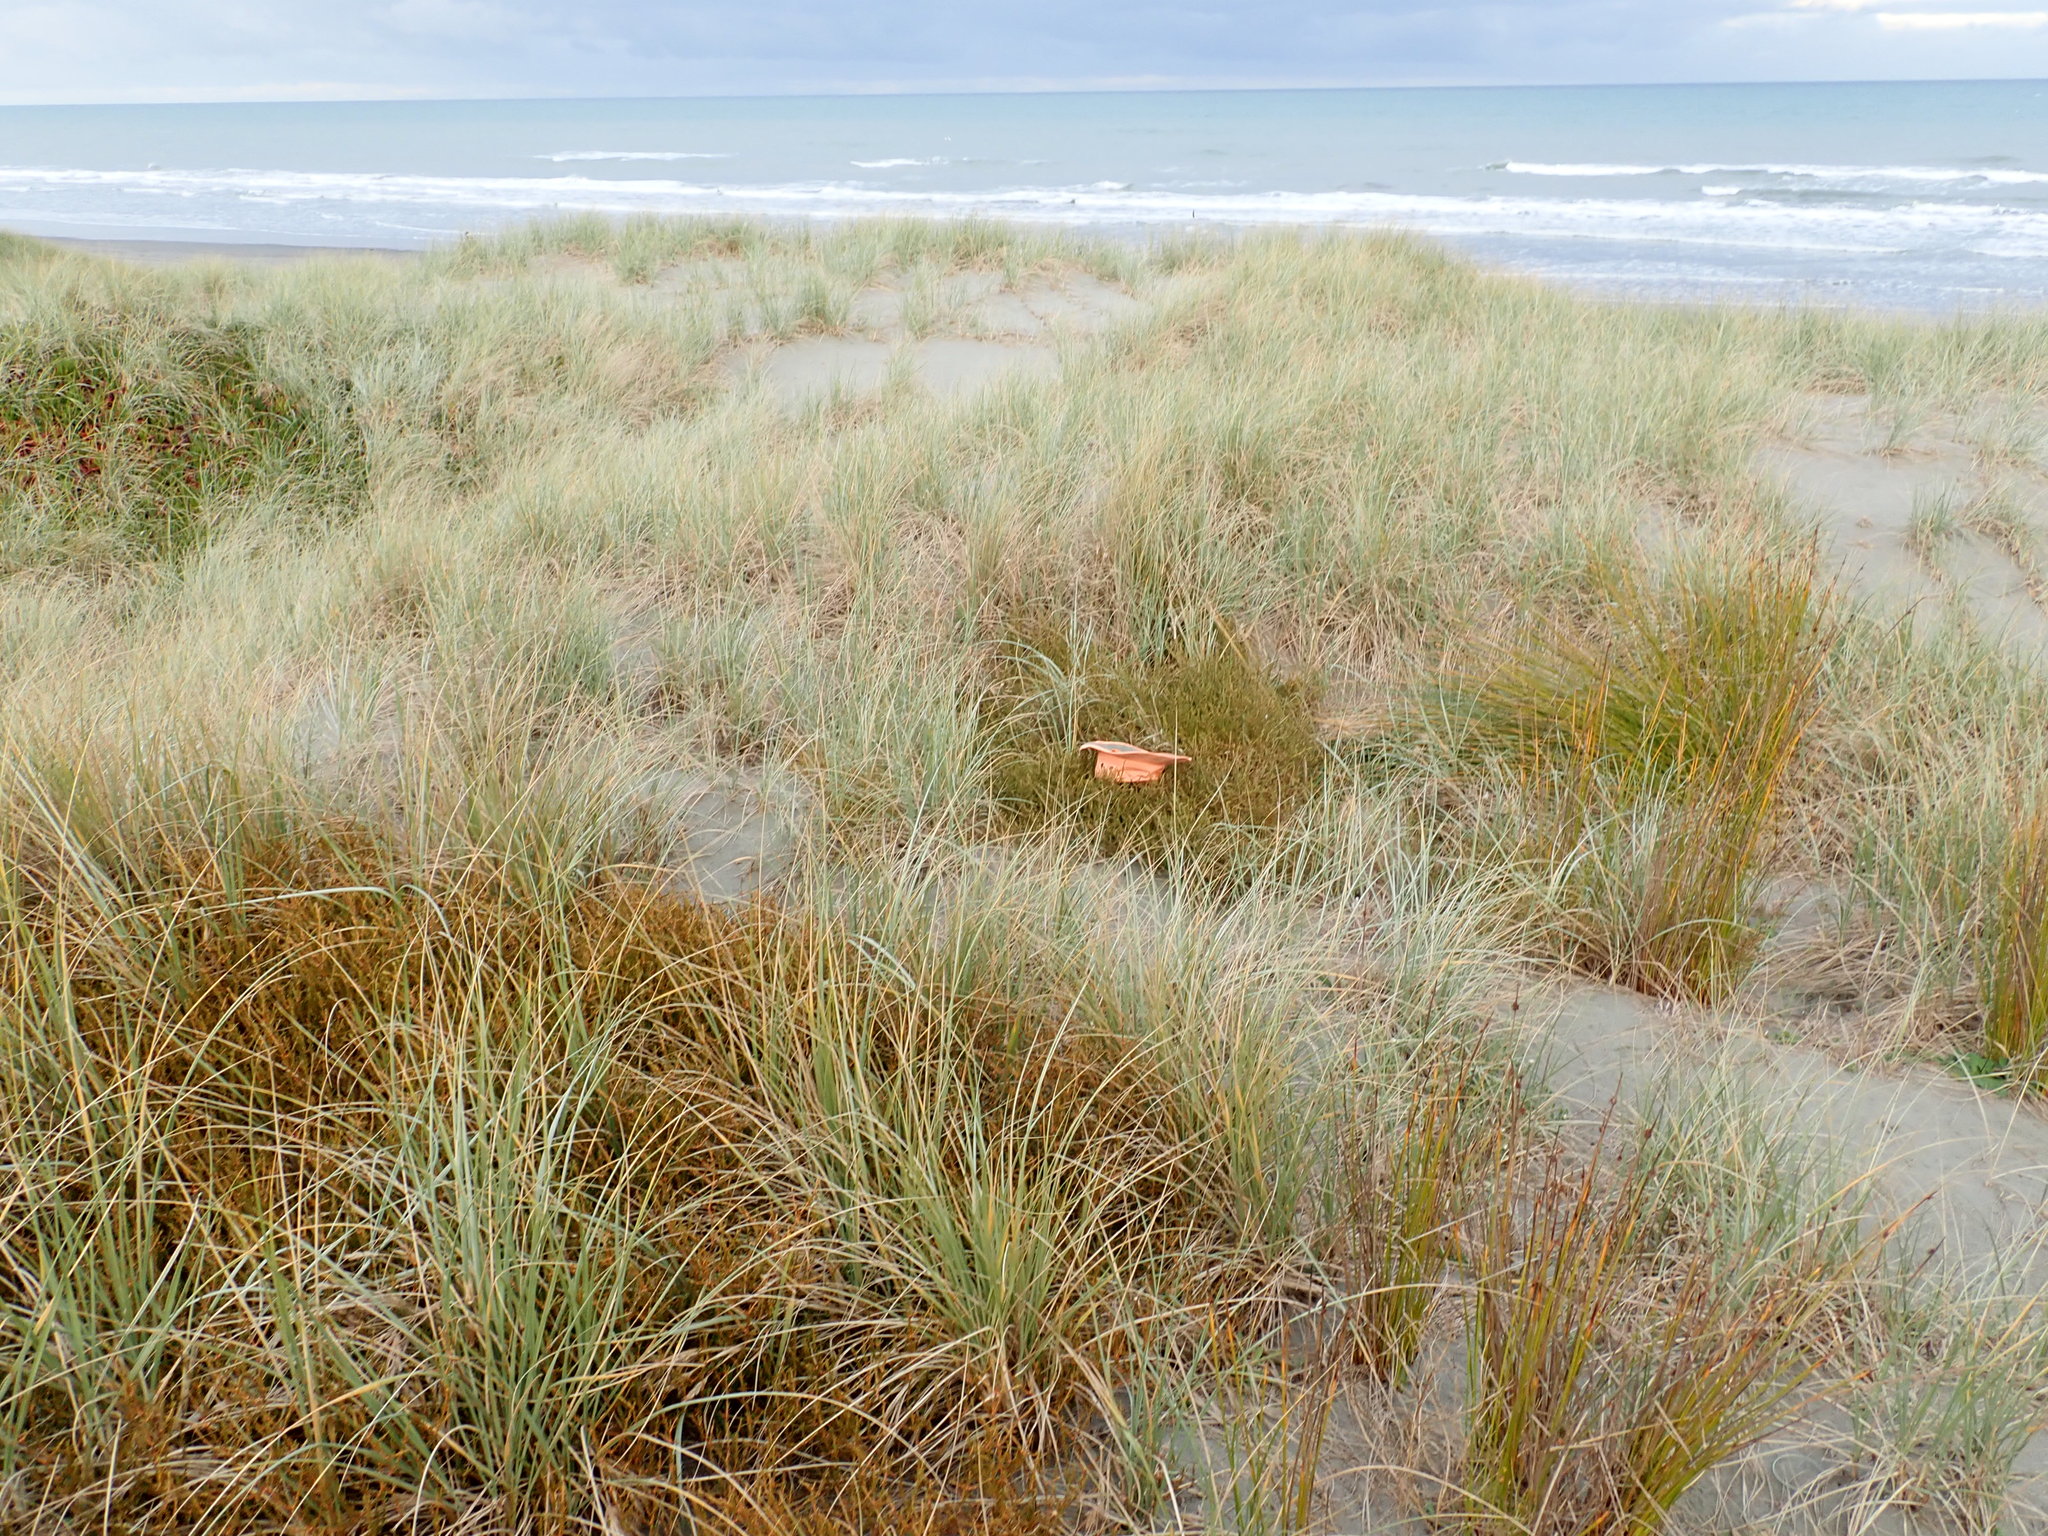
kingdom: Plantae
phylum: Tracheophyta
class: Magnoliopsida
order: Gentianales
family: Rubiaceae
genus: Coprosma
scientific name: Coprosma acerosa
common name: Sand coprosma
